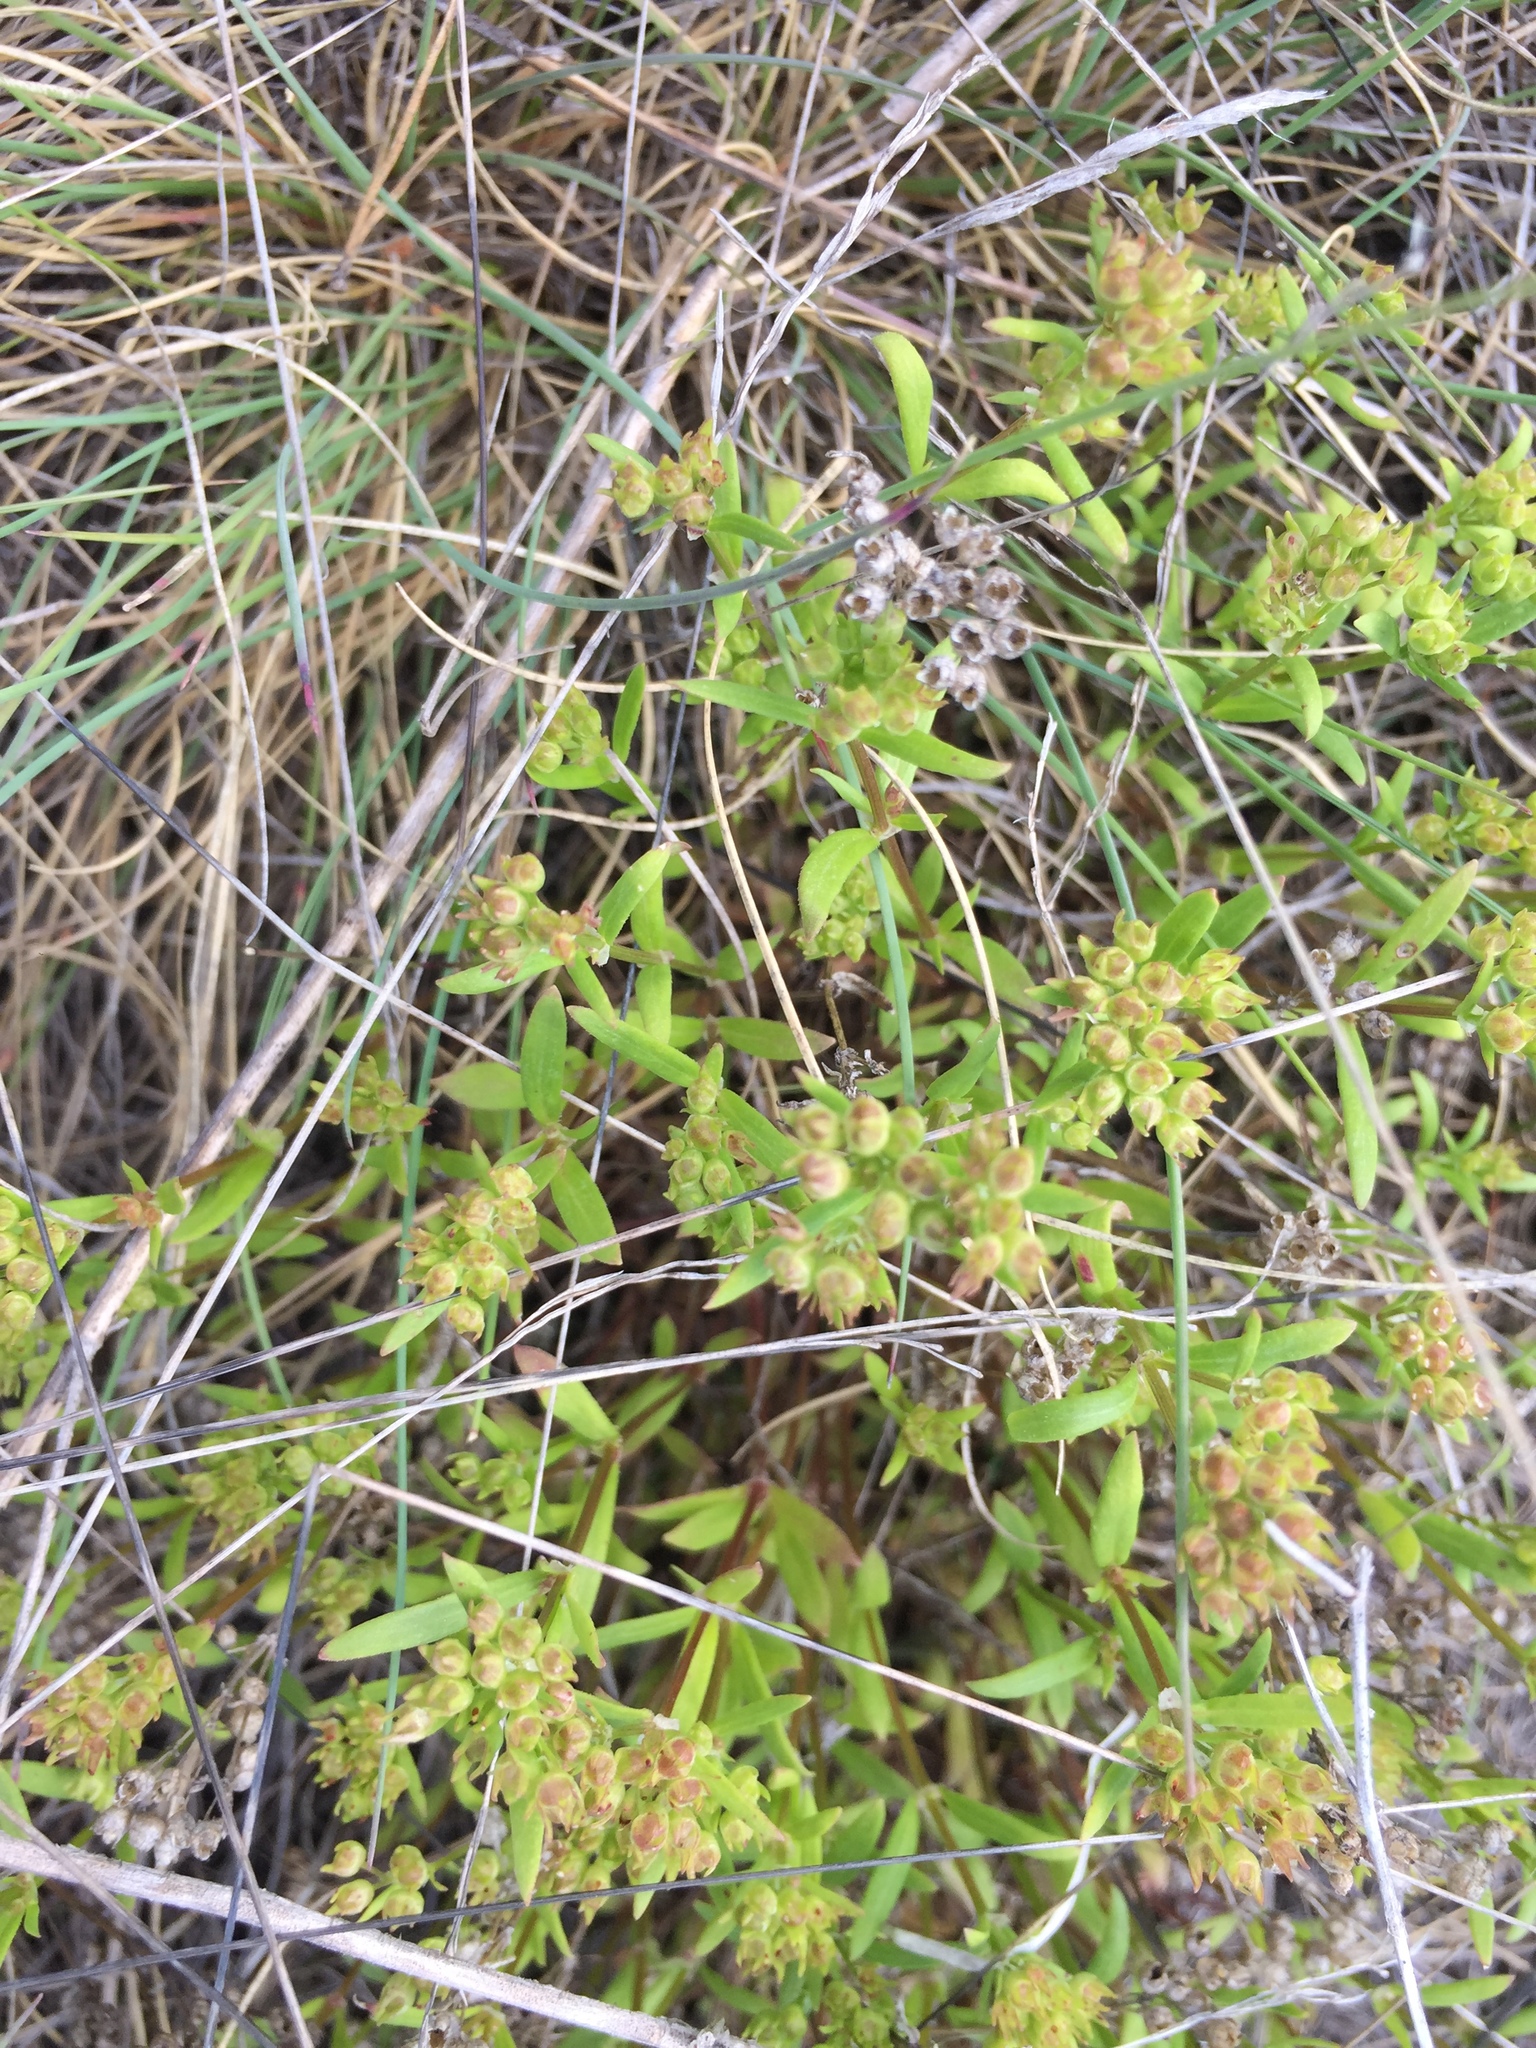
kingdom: Plantae
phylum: Tracheophyta
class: Magnoliopsida
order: Gentianales
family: Rubiaceae
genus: Houstonia
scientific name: Houstonia longifolia
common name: Long-leaved bluets
